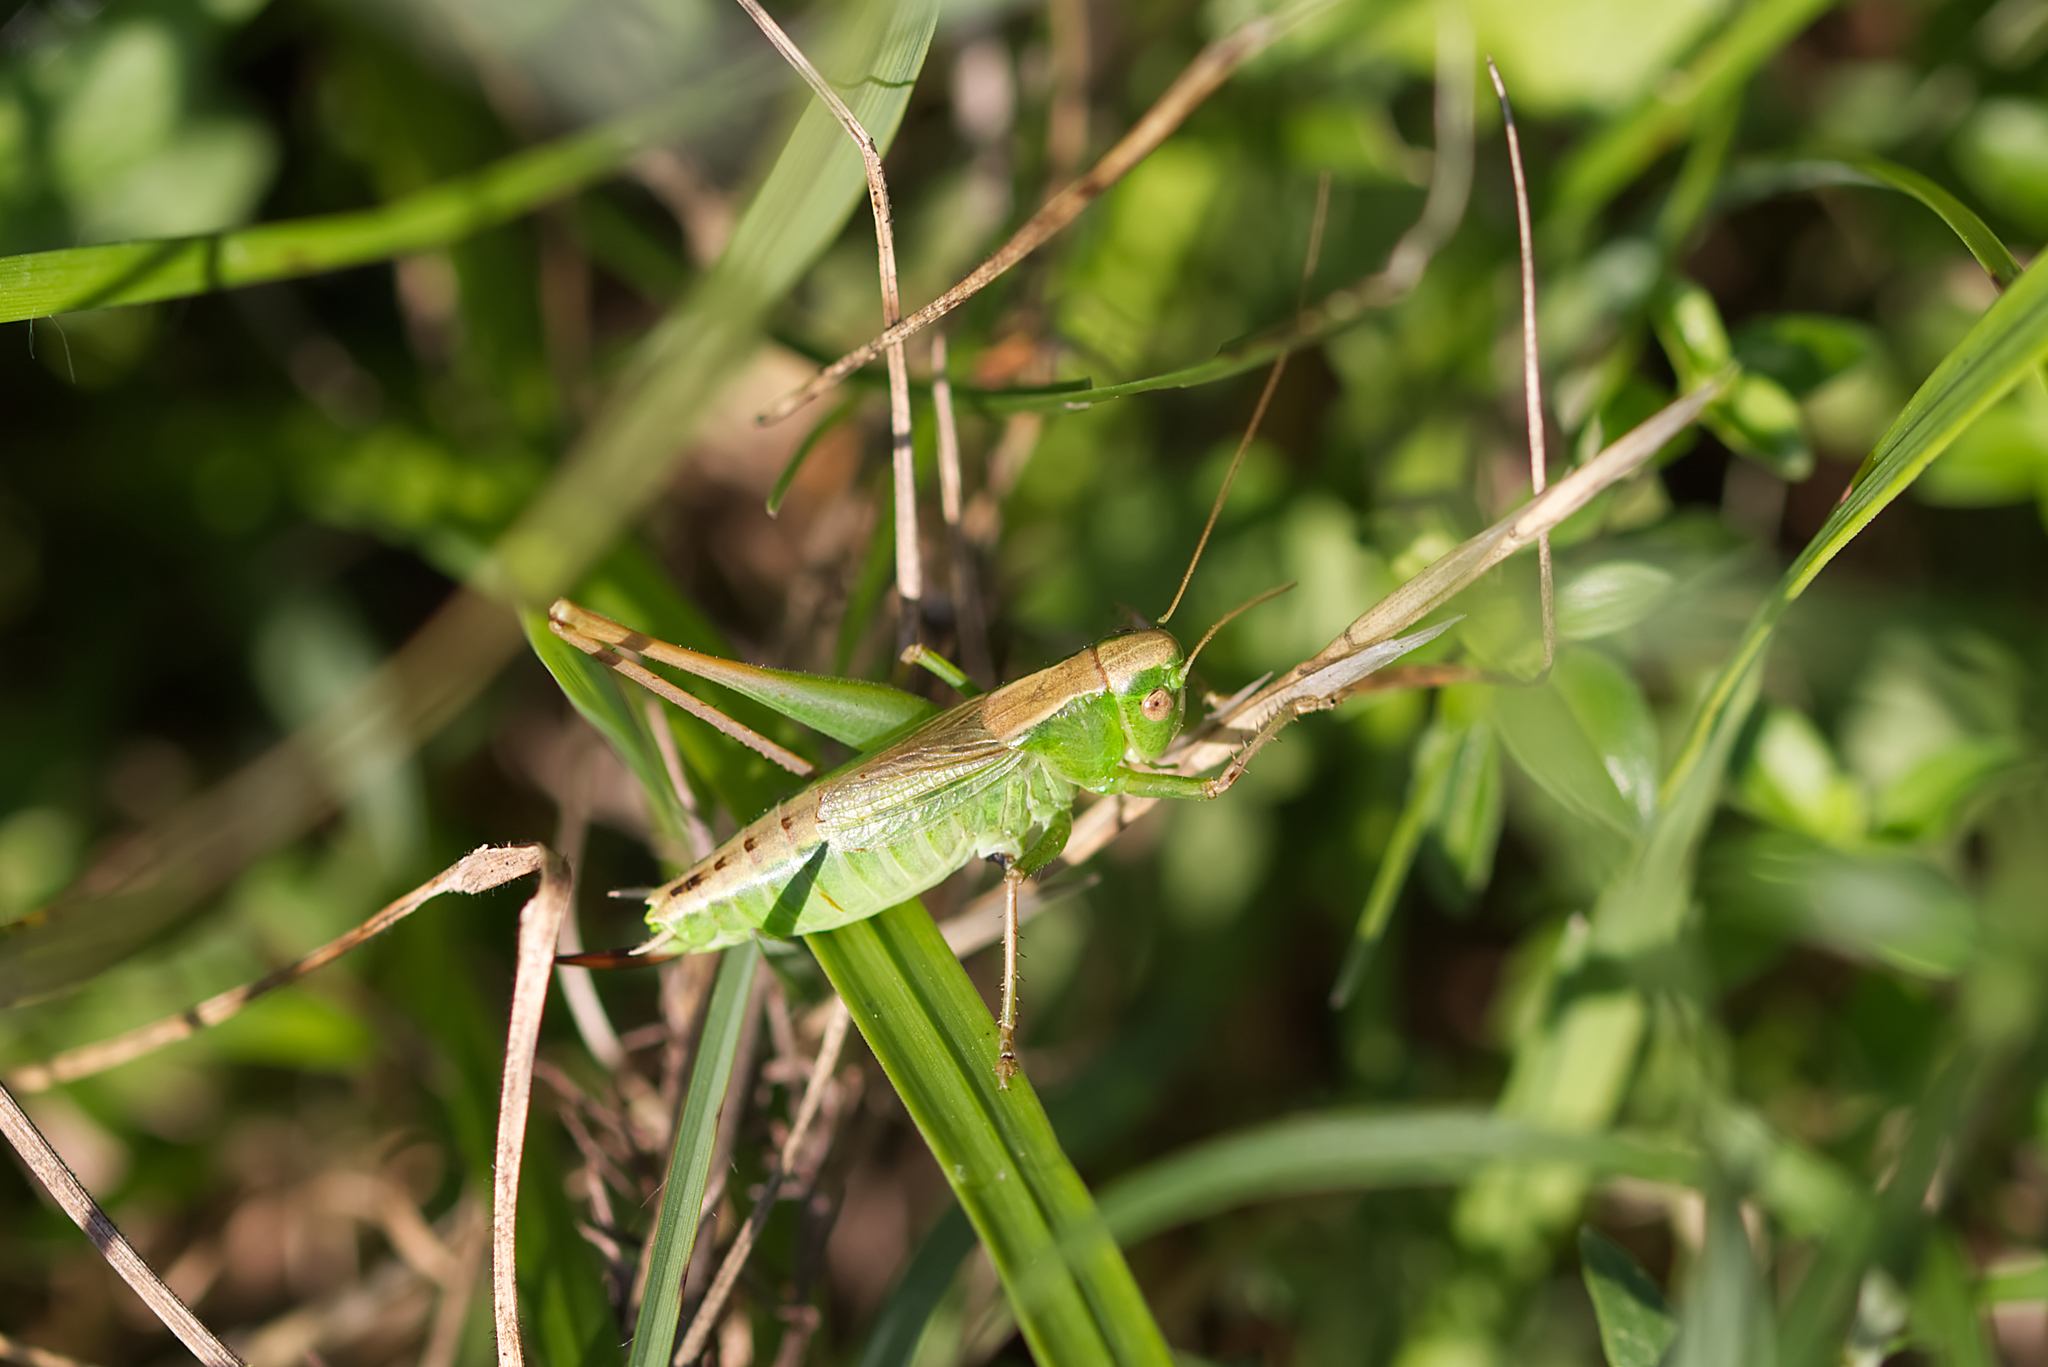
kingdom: Animalia
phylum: Arthropoda
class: Insecta
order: Orthoptera
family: Tettigoniidae
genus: Bicolorana
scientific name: Bicolorana bicolor
